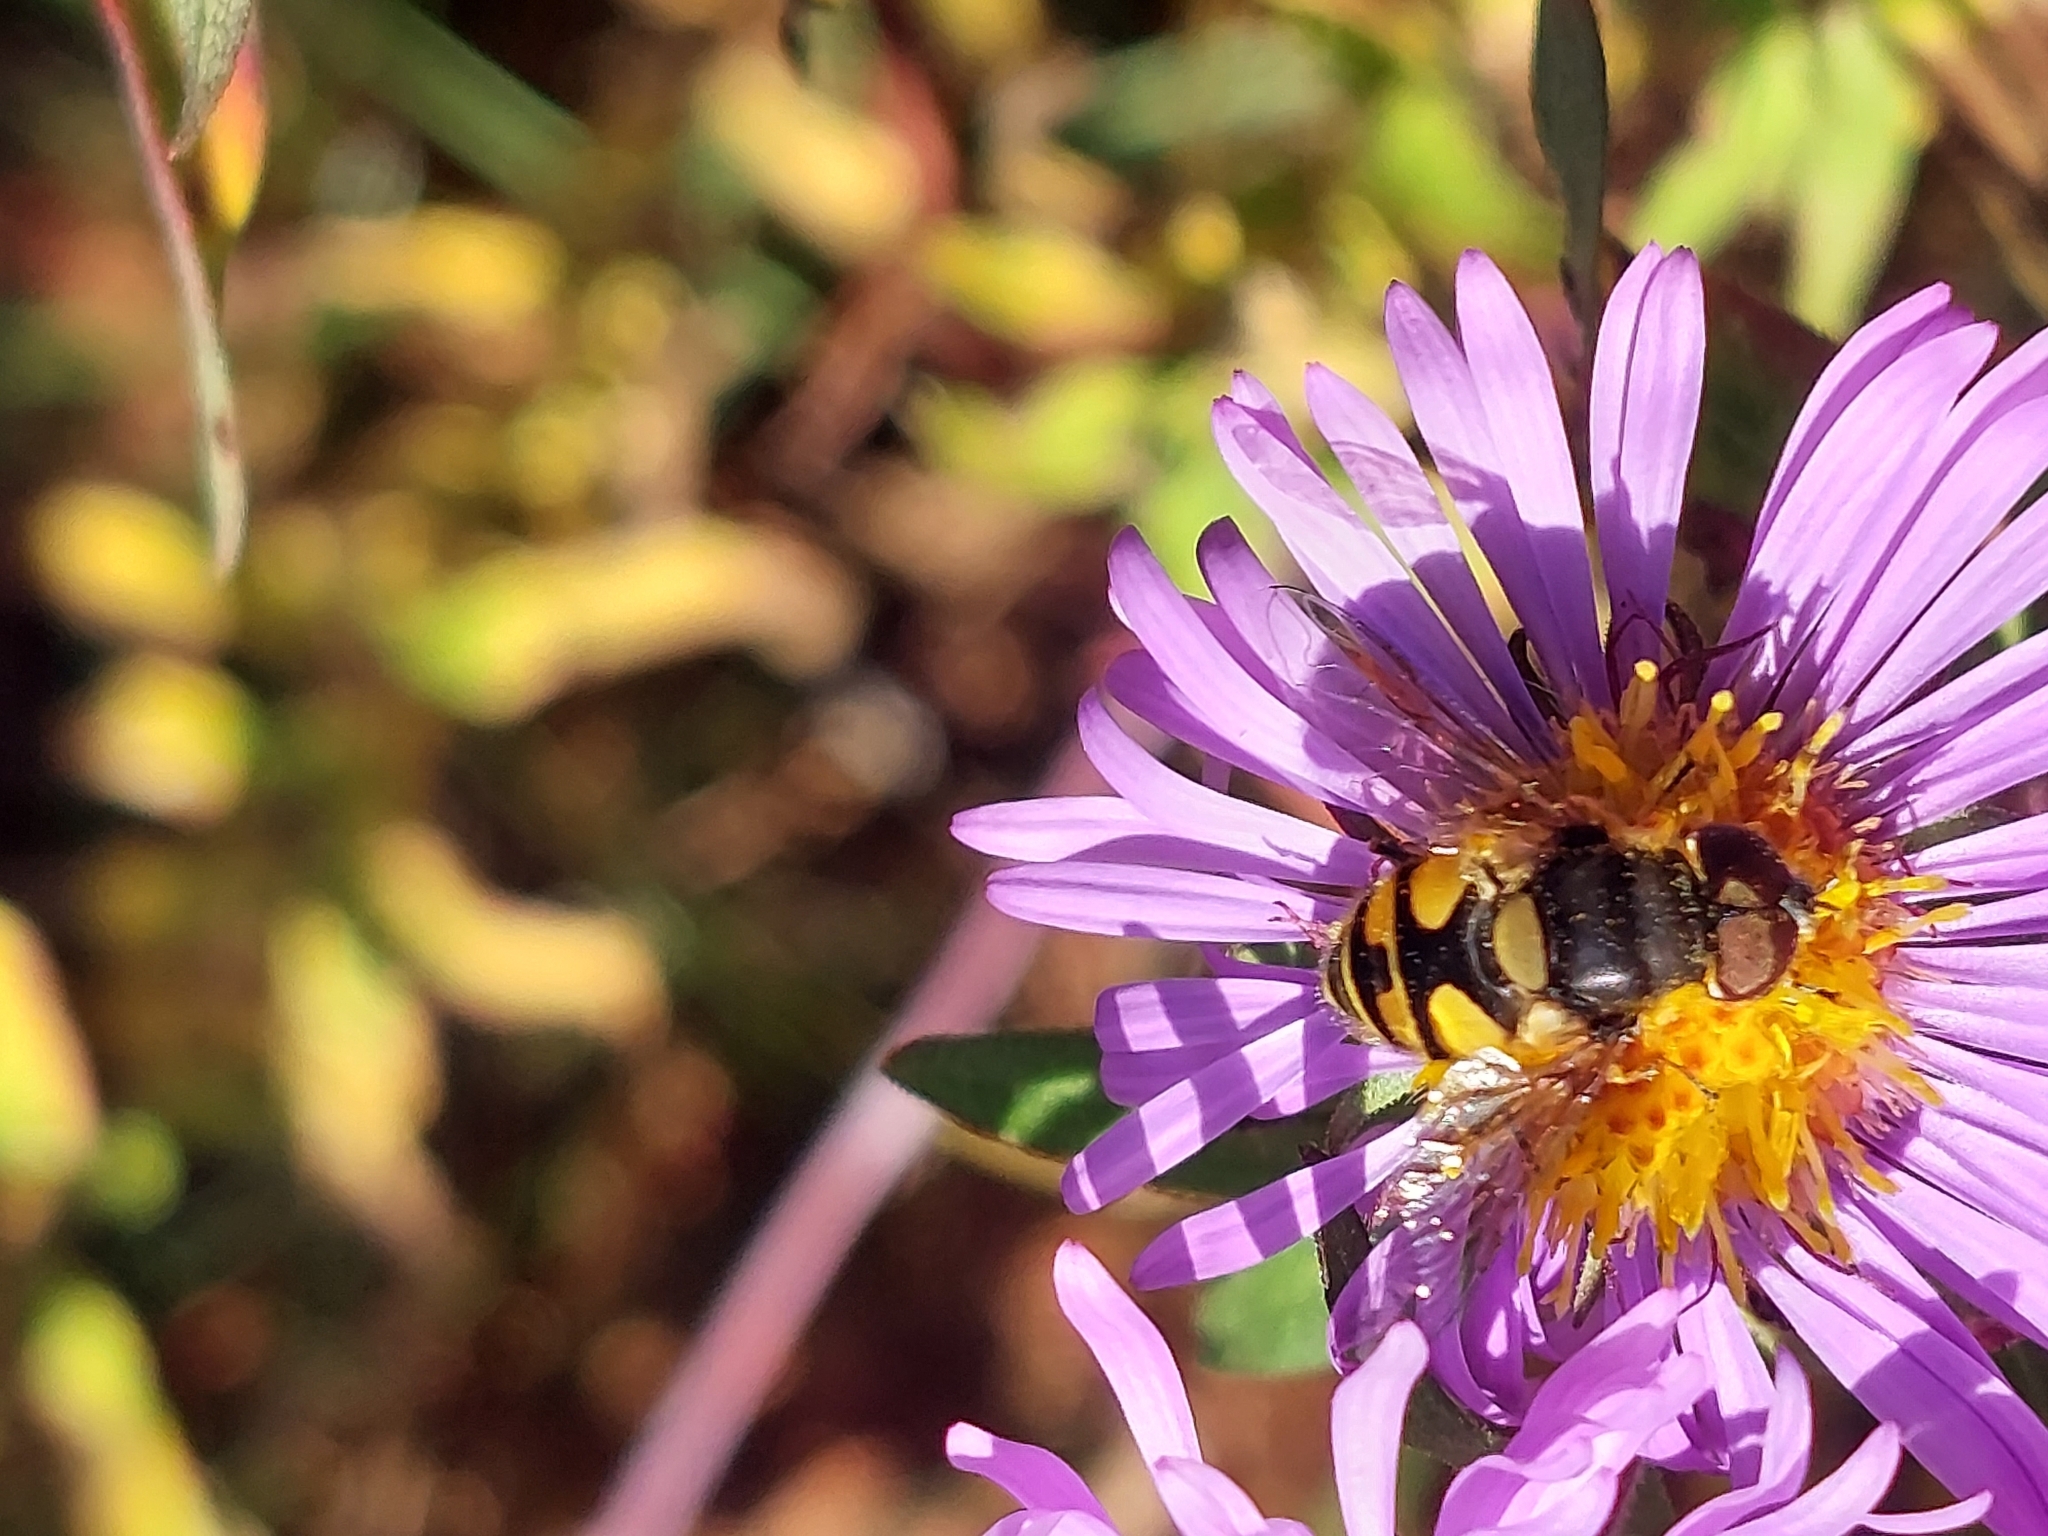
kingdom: Animalia
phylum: Arthropoda
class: Insecta
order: Diptera
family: Syrphidae
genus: Eristalis
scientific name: Eristalis transversa
